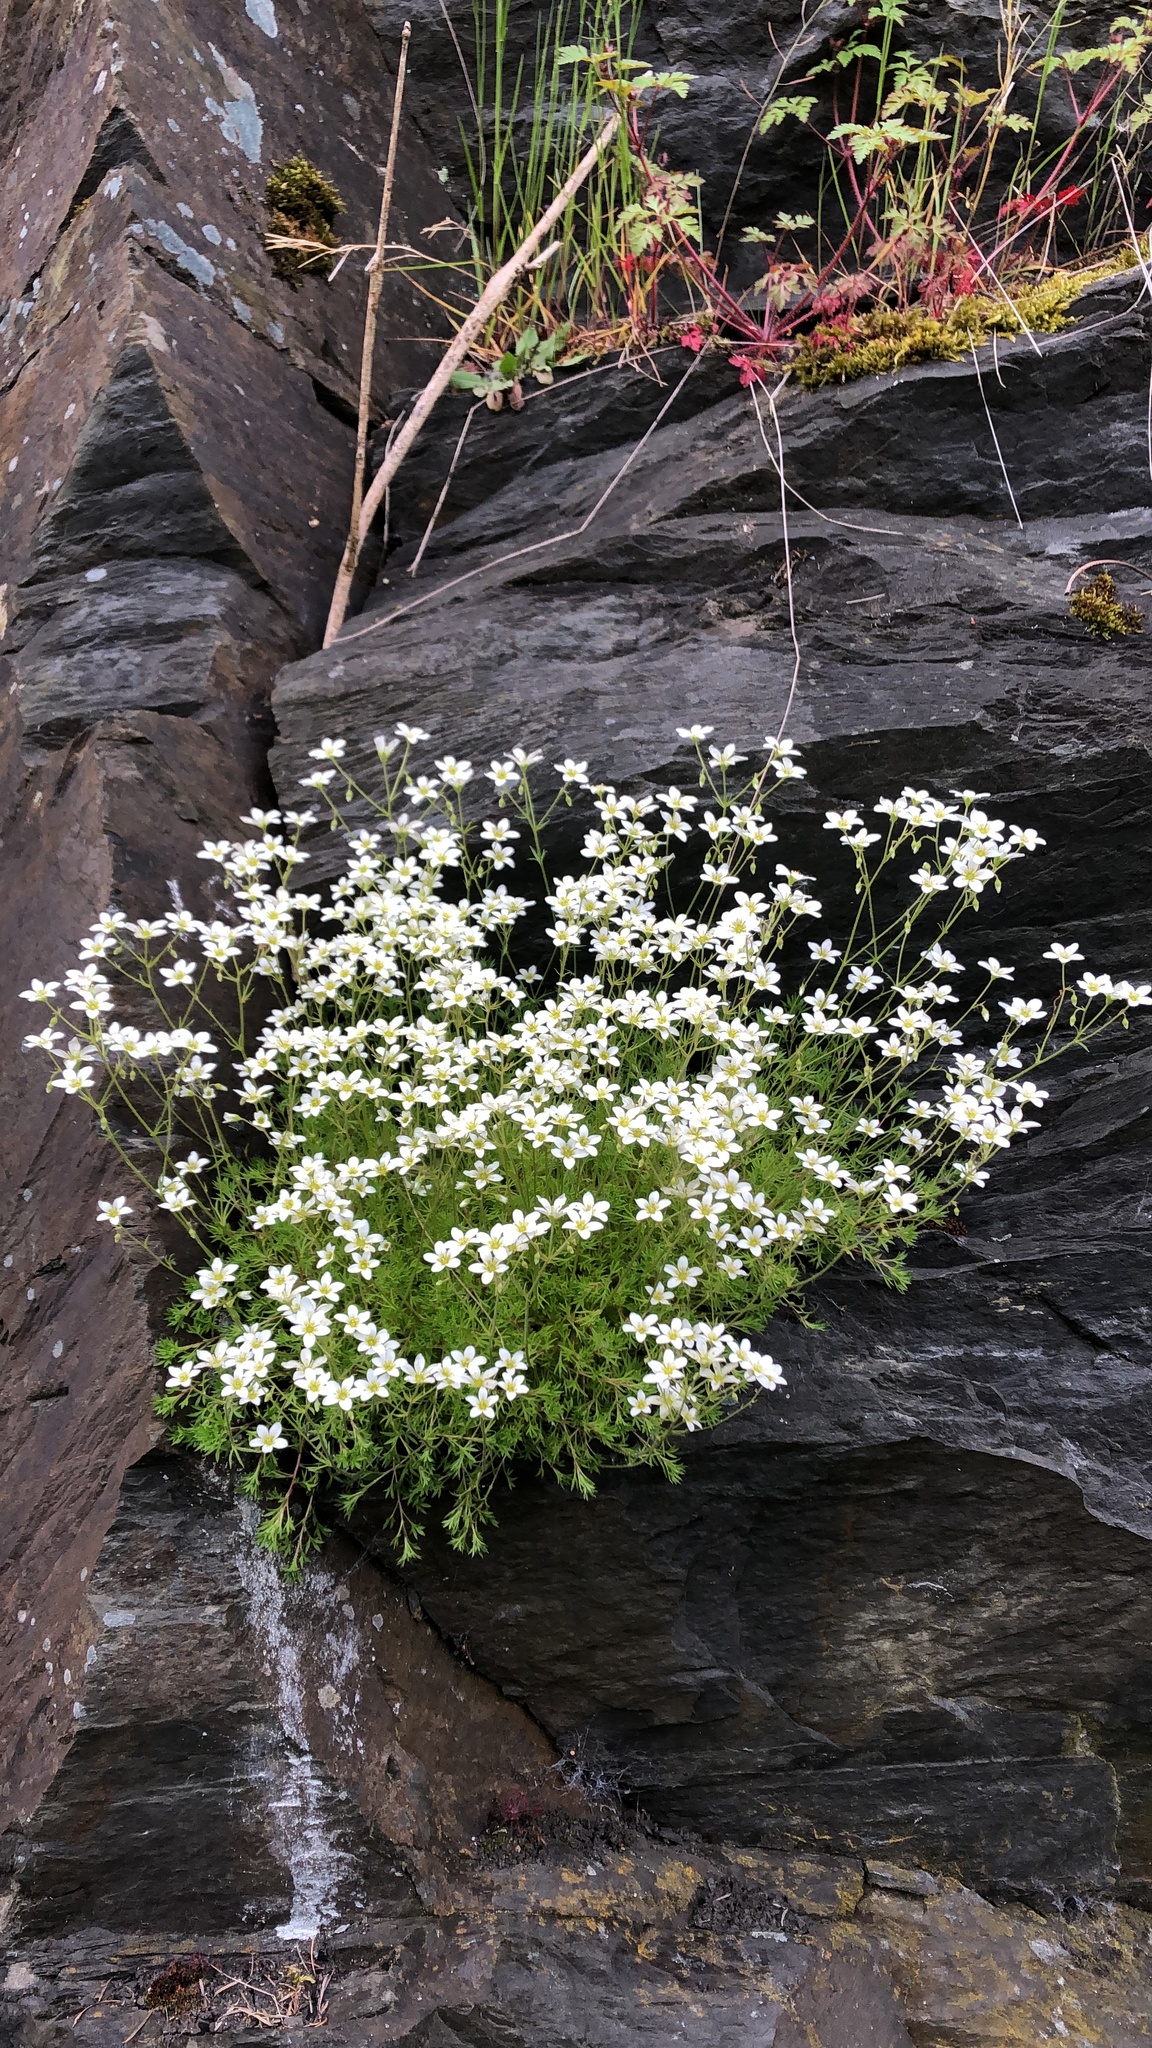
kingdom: Plantae
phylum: Tracheophyta
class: Magnoliopsida
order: Saxifragales
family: Saxifragaceae
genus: Saxifraga
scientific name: Saxifraga rosacea
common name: Irish saxifrage
